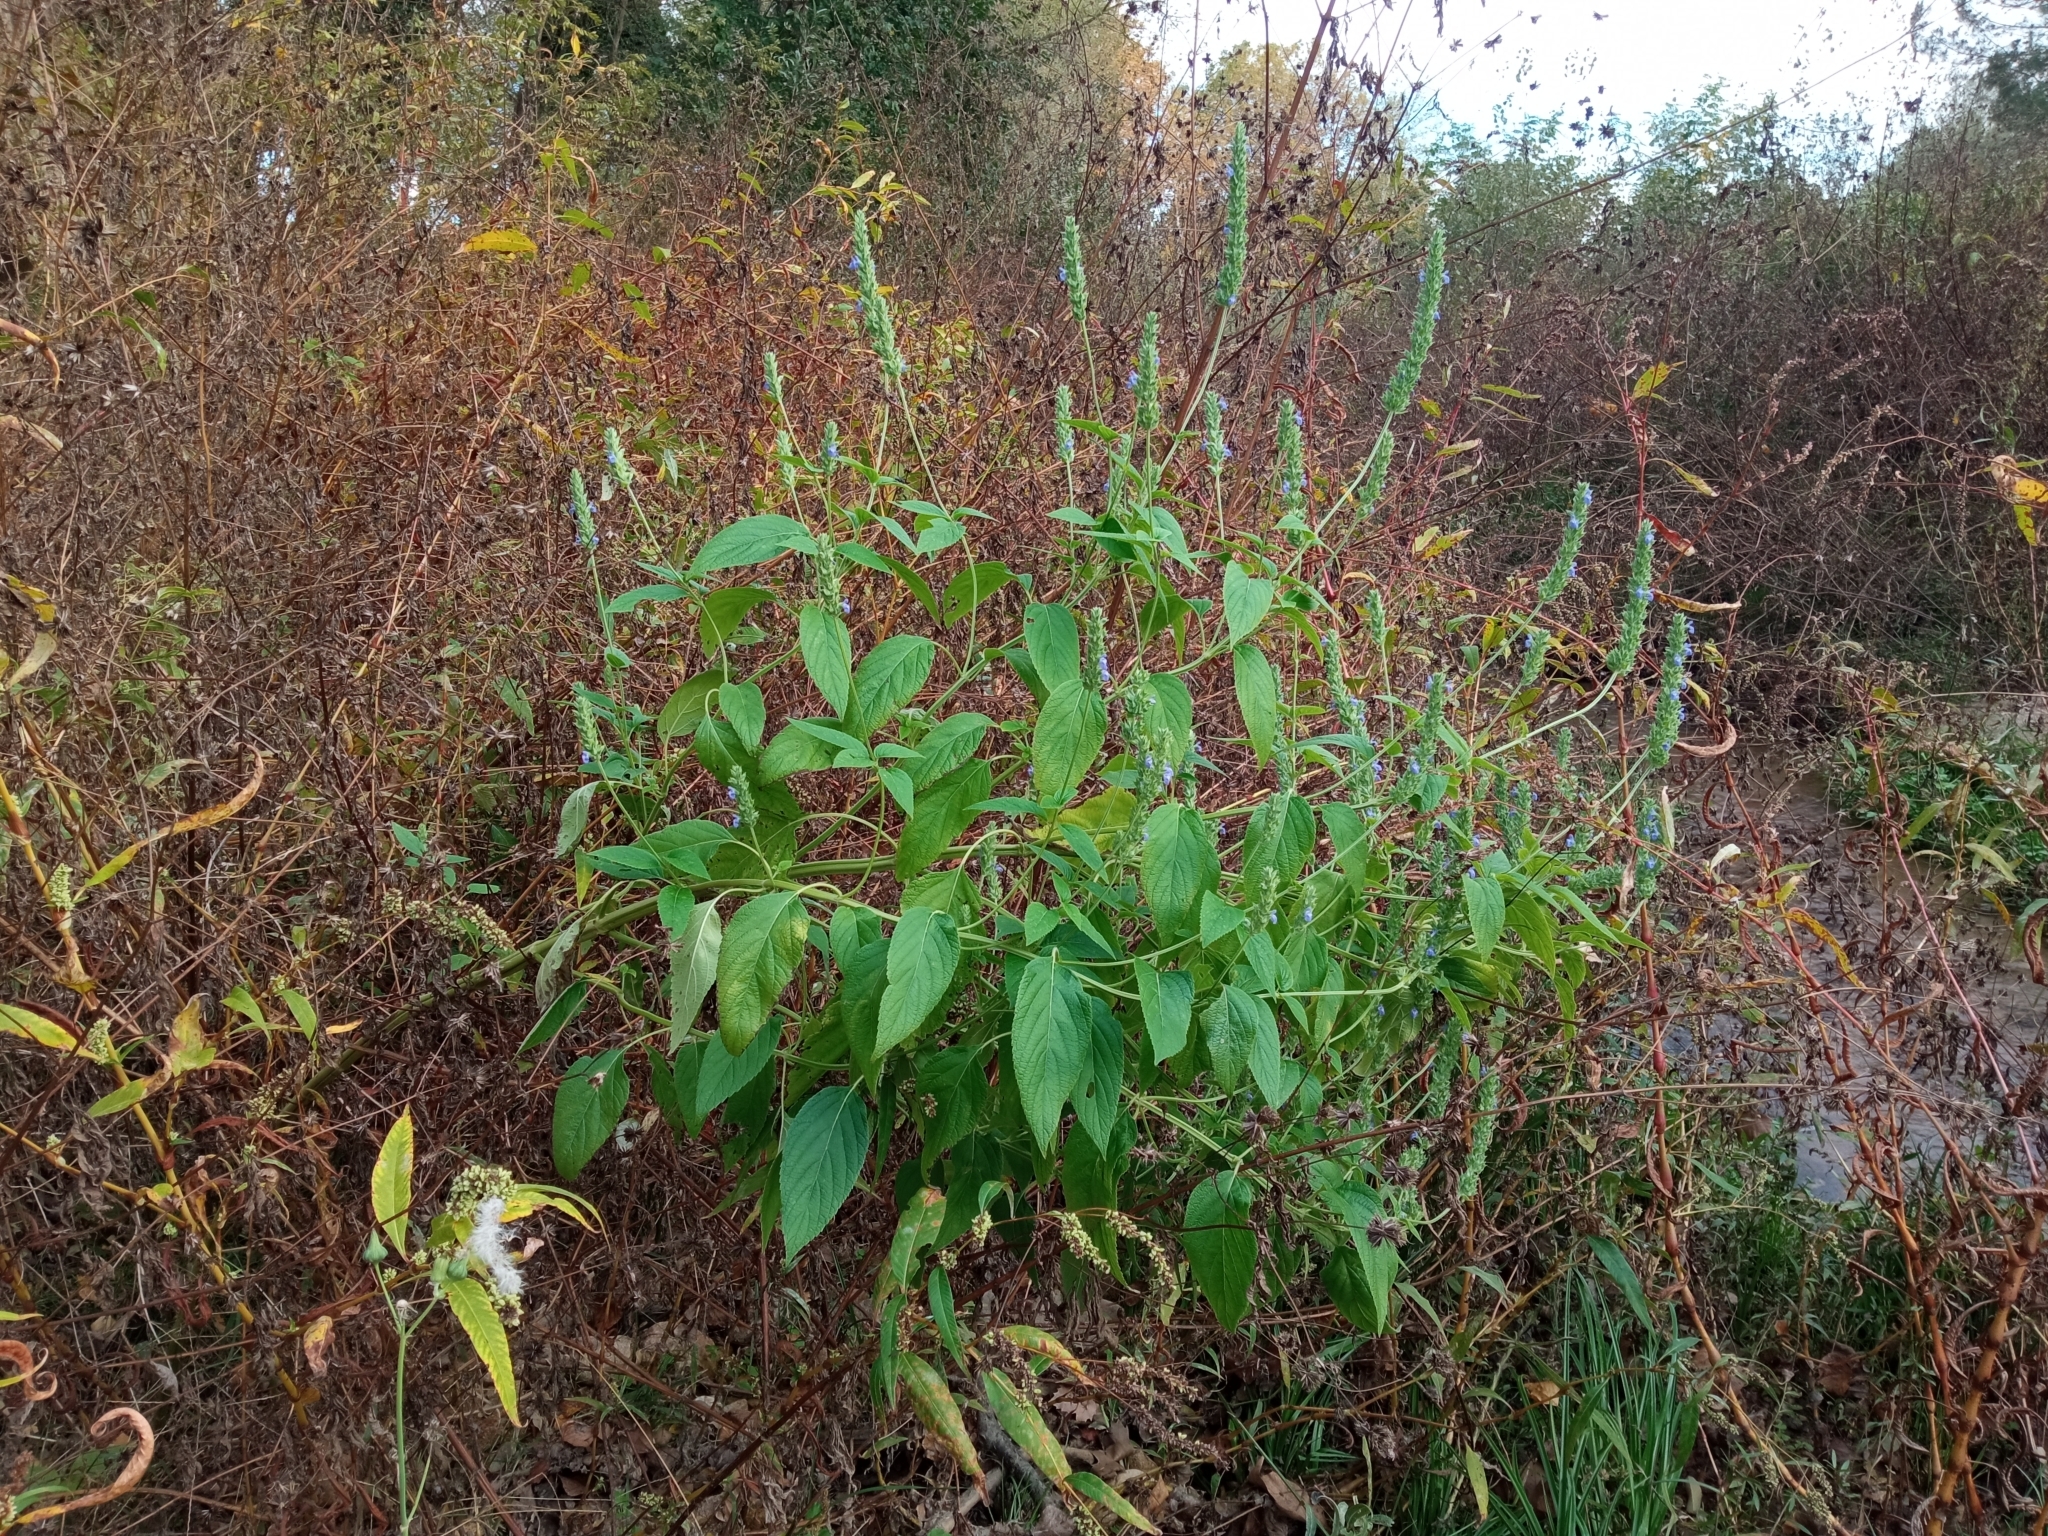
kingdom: Plantae
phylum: Tracheophyta
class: Magnoliopsida
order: Lamiales
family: Lamiaceae
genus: Salvia
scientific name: Salvia hispanica
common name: Chia
